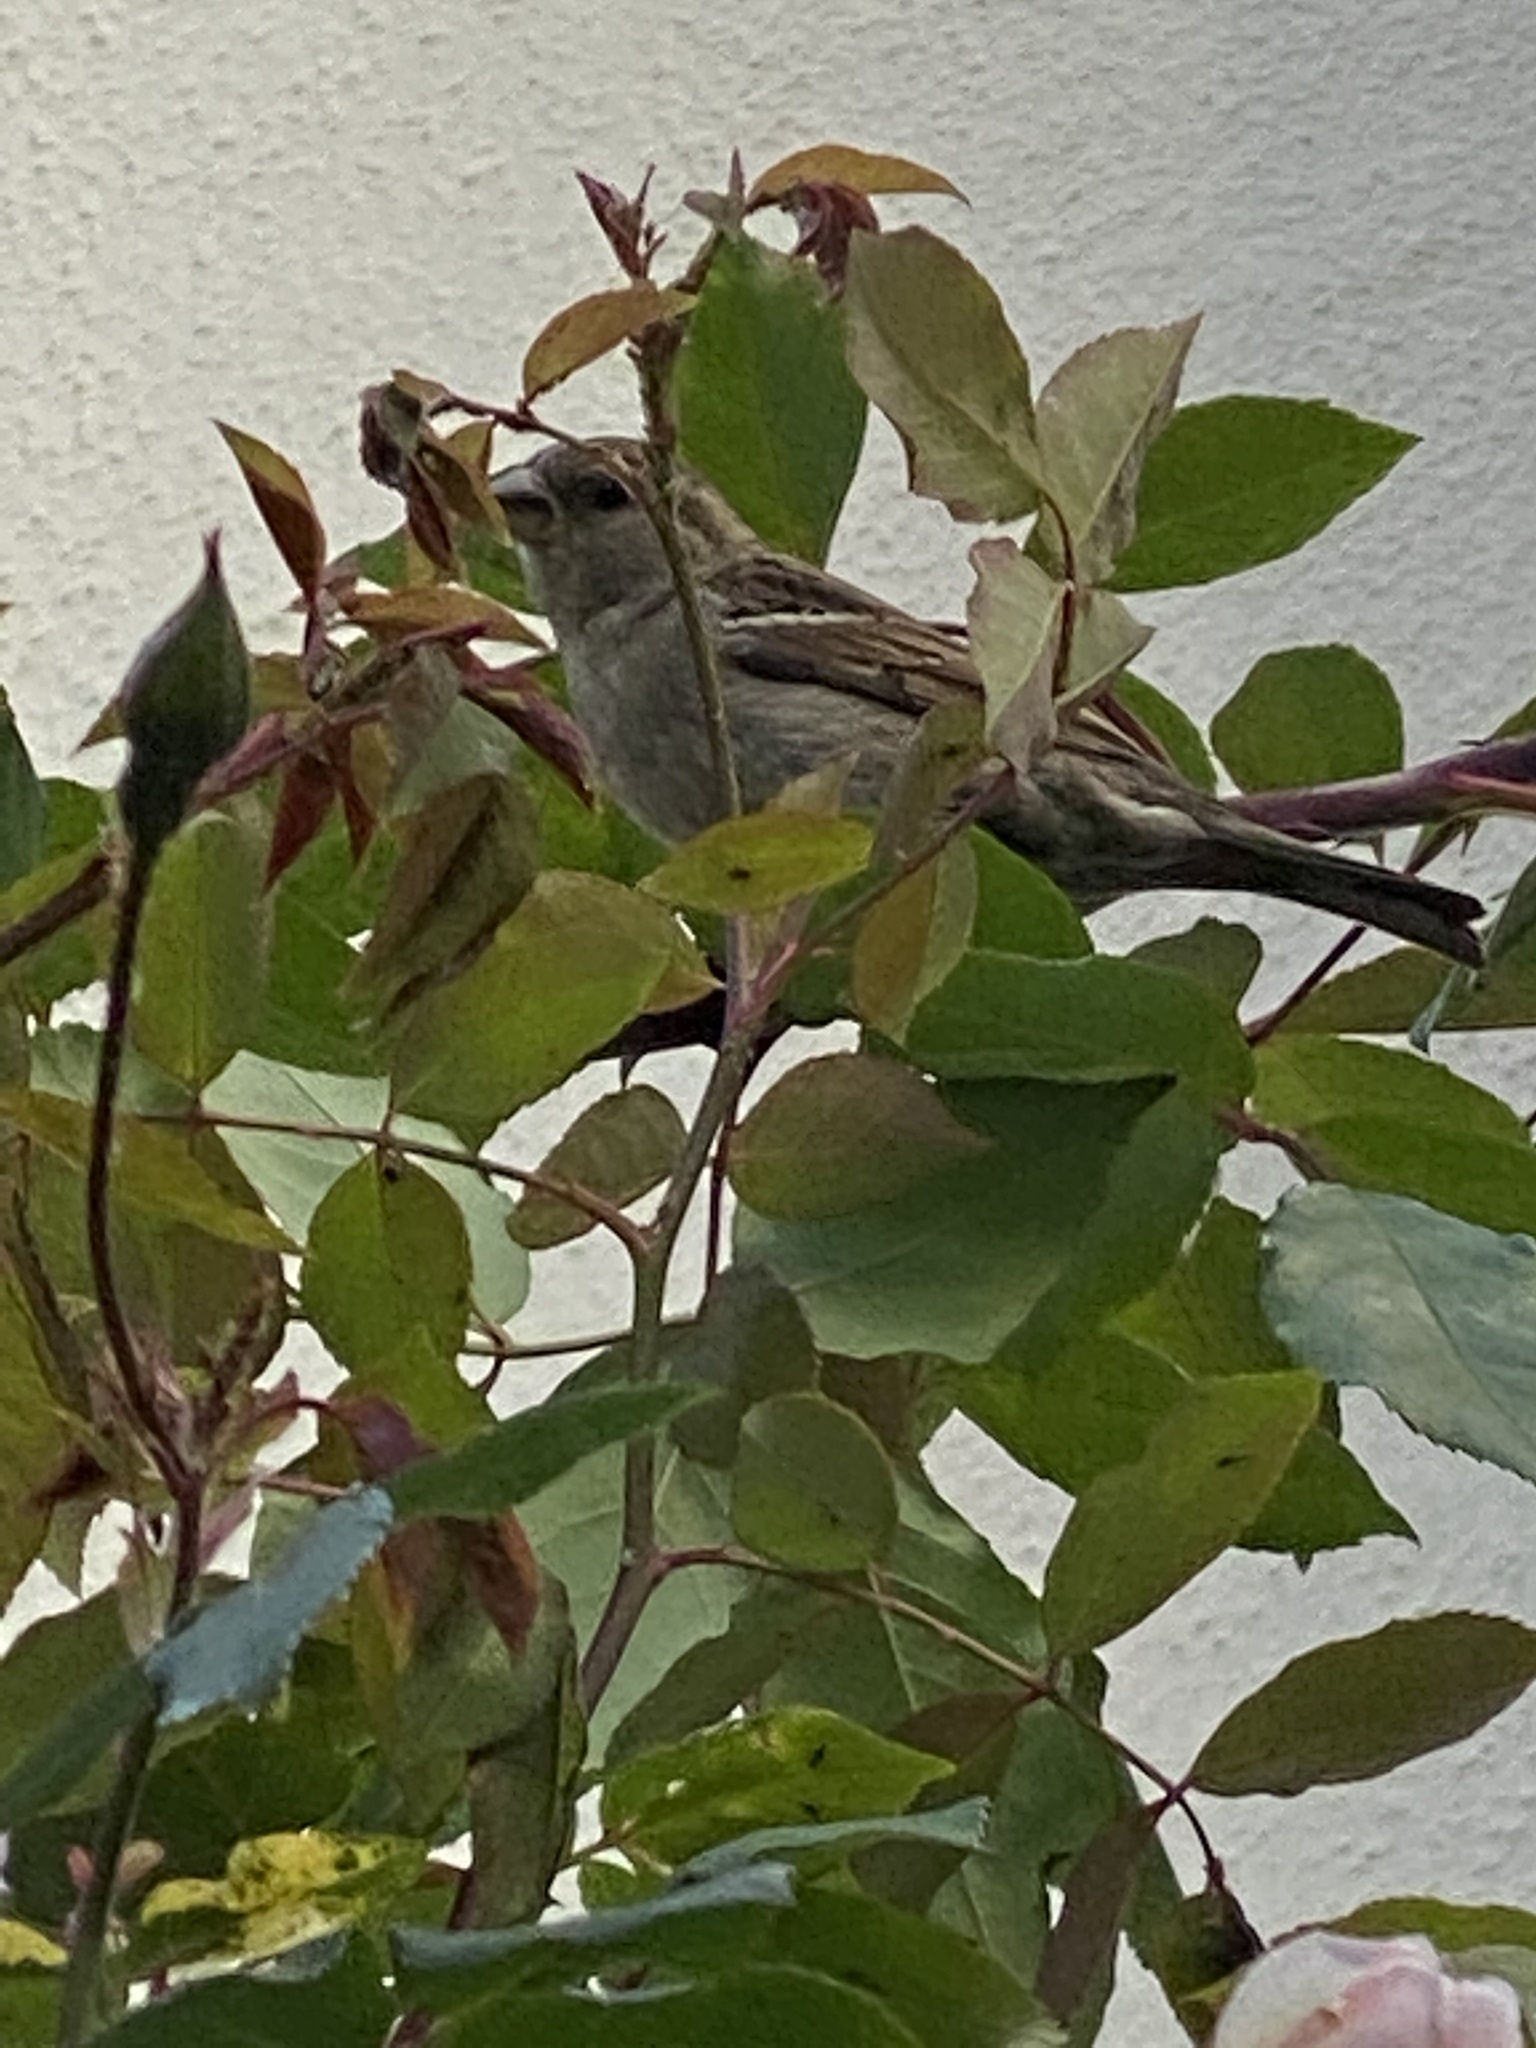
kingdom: Animalia
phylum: Chordata
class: Aves
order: Passeriformes
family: Passeridae
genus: Passer
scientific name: Passer domesticus
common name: House sparrow
